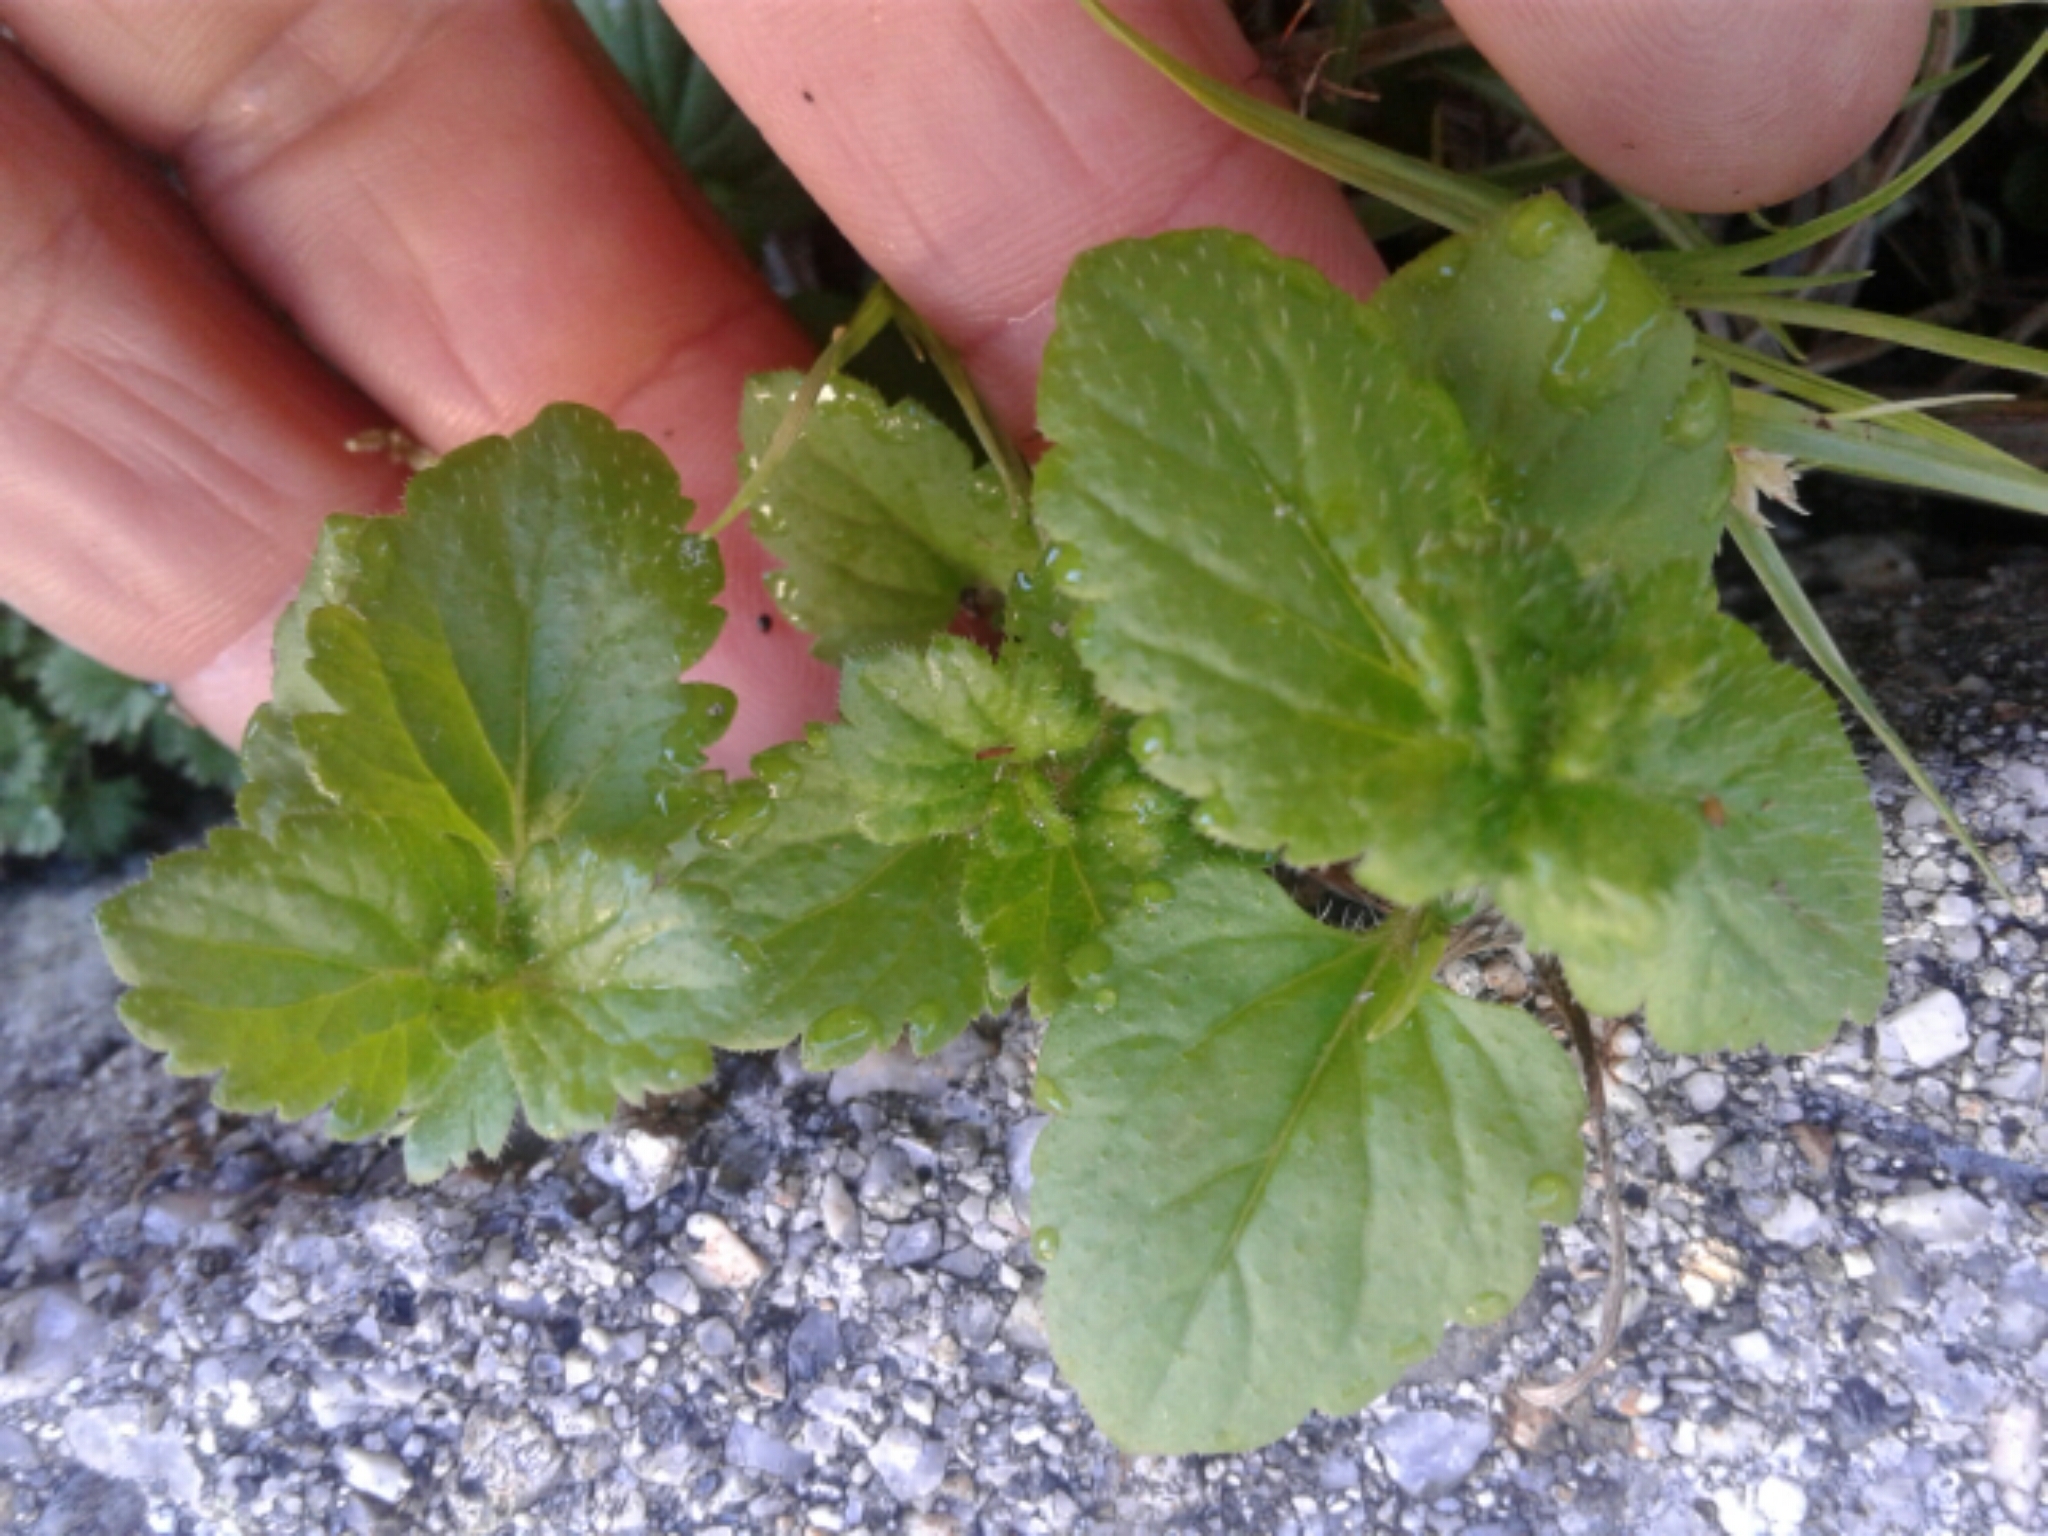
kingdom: Plantae
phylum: Tracheophyta
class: Magnoliopsida
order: Lamiales
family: Plantaginaceae
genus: Veronica
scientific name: Veronica persica
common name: Common field-speedwell
